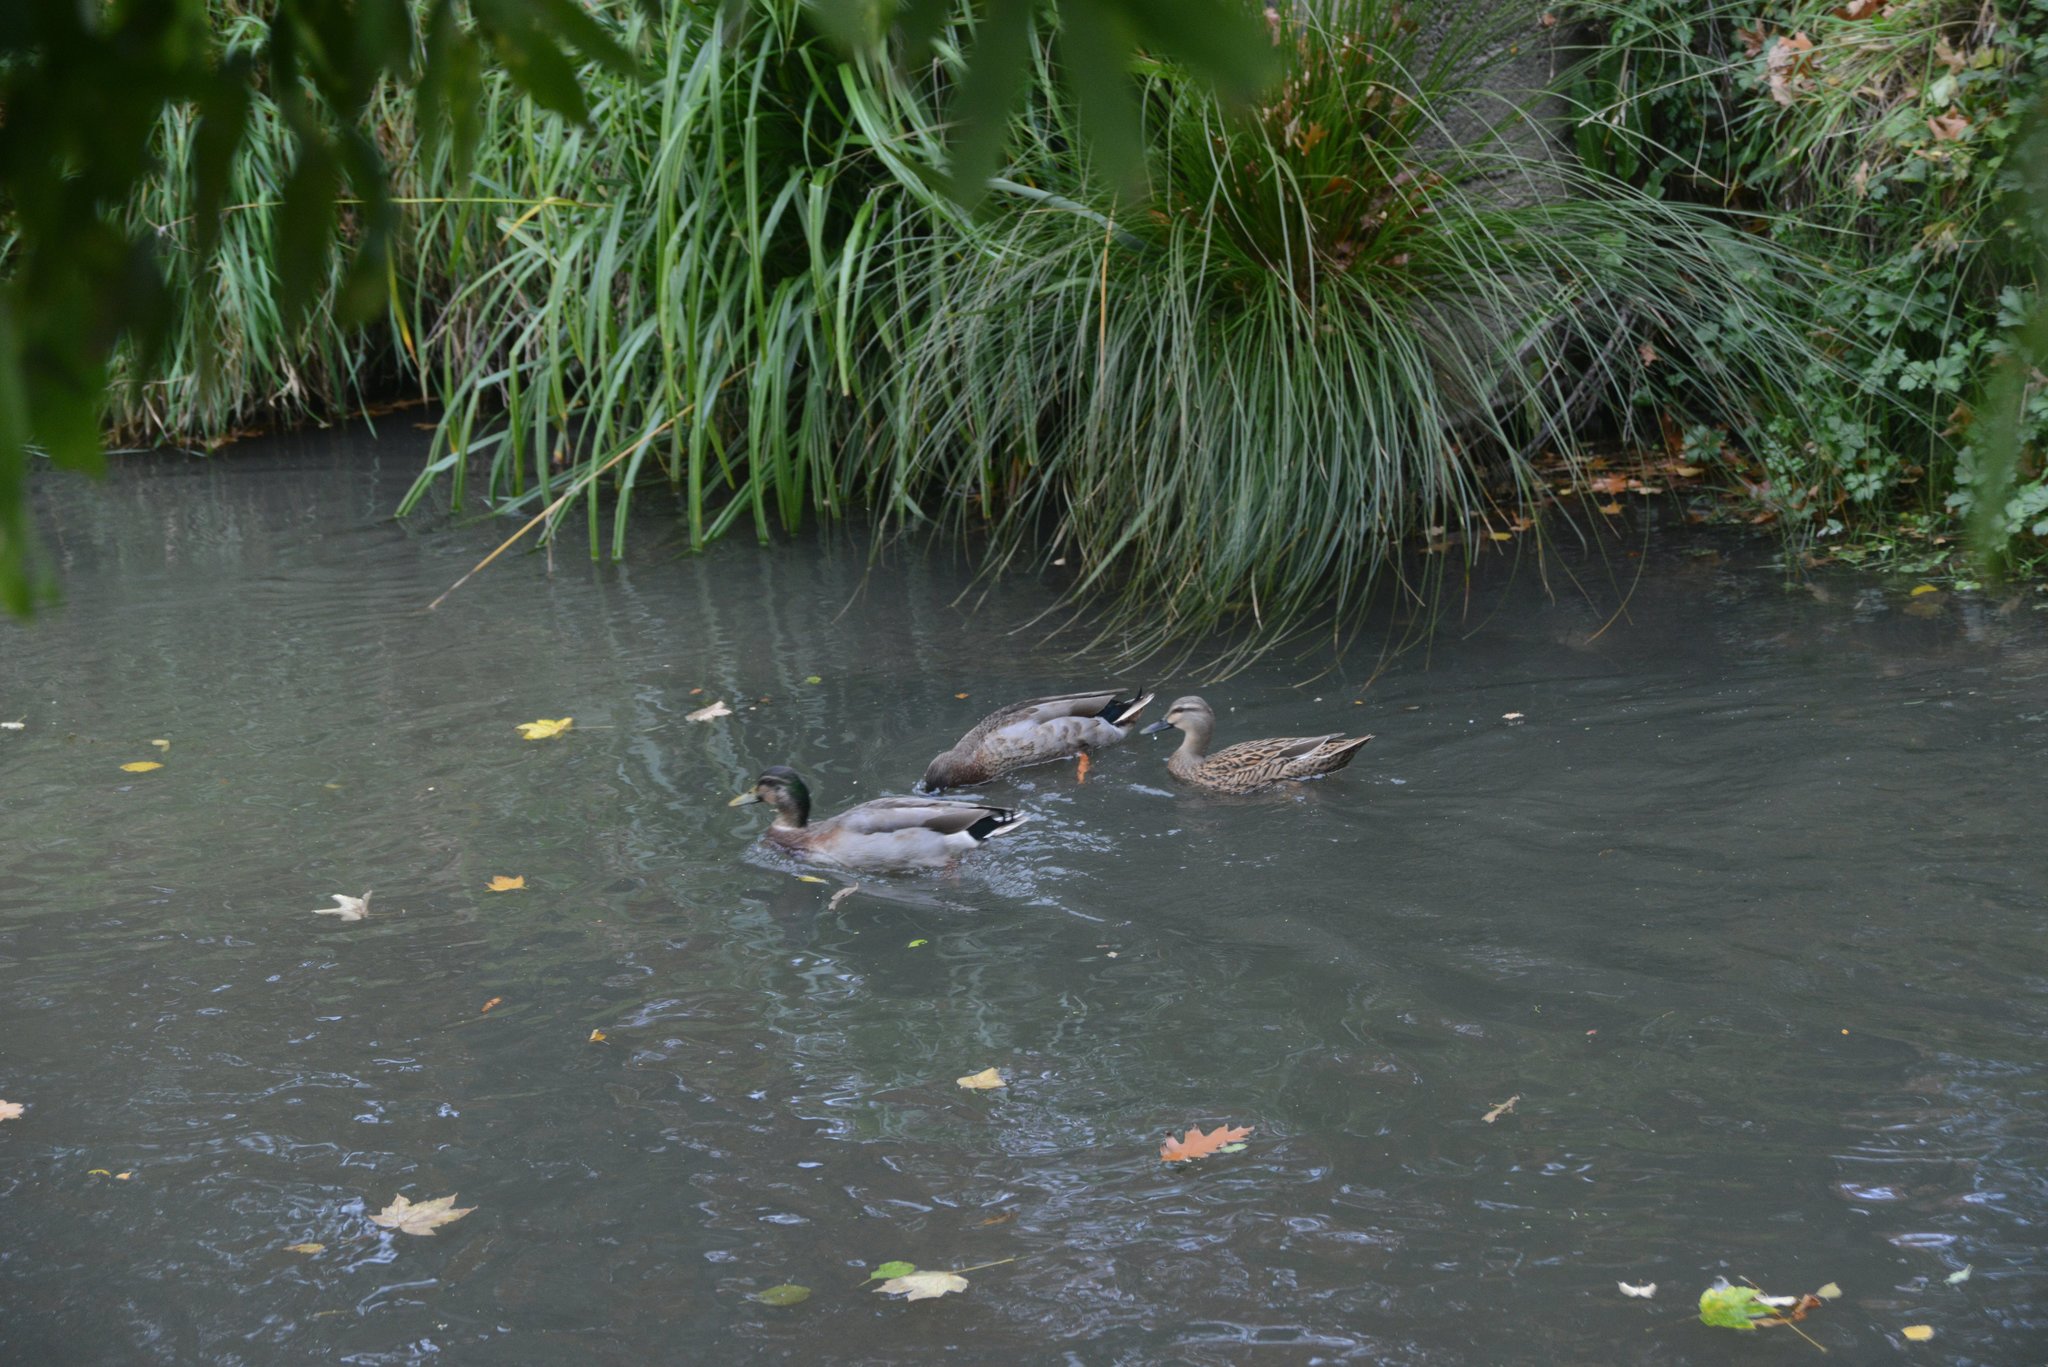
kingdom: Animalia
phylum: Chordata
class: Aves
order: Anseriformes
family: Anatidae
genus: Anas
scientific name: Anas
